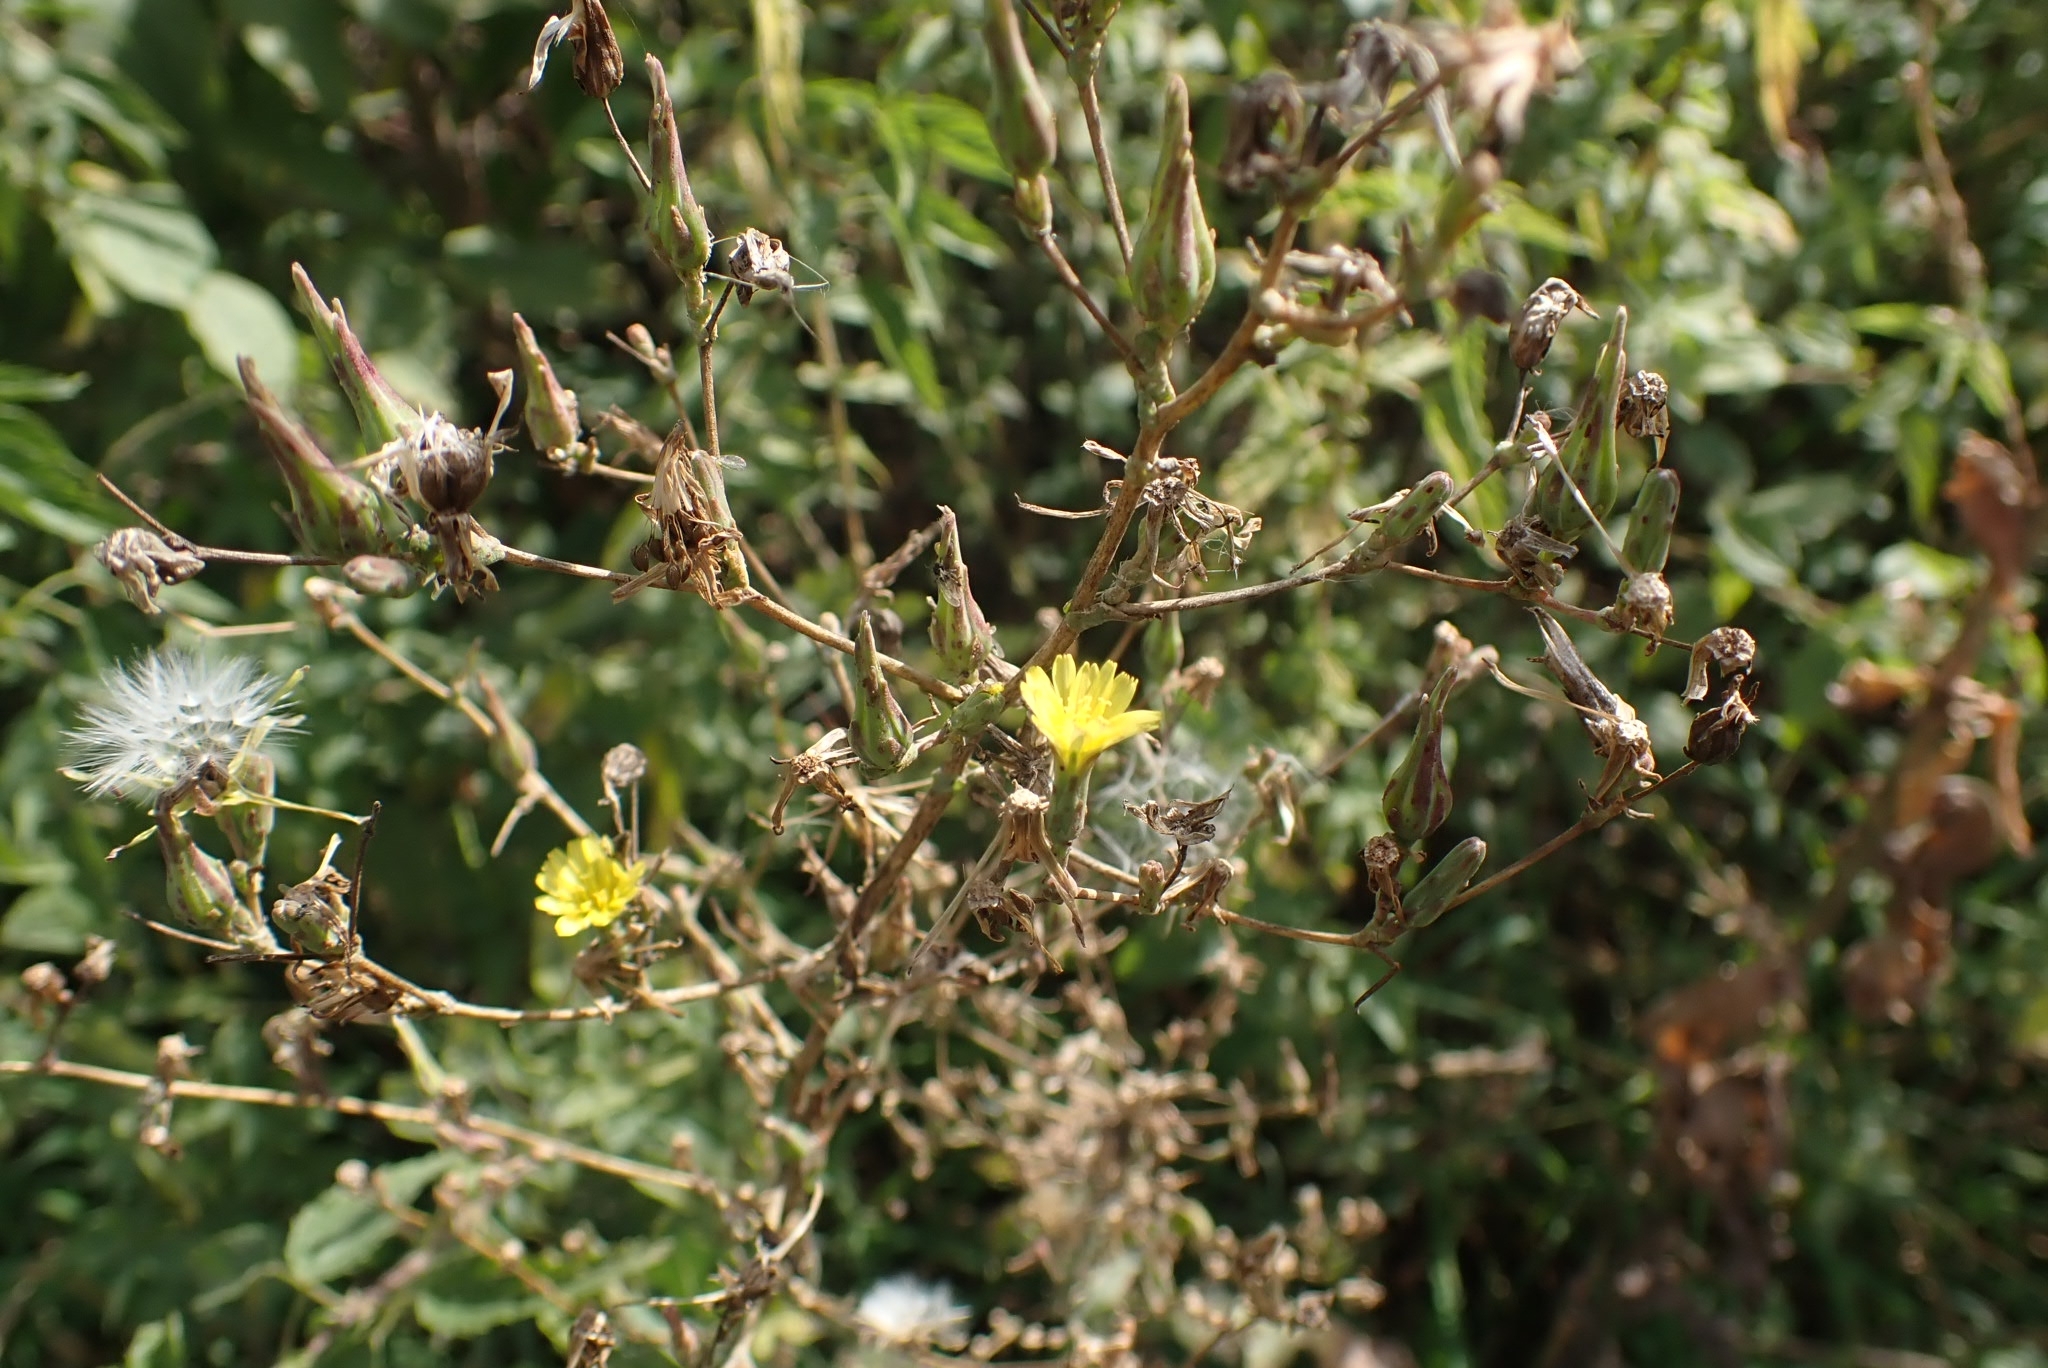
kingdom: Plantae
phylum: Tracheophyta
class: Magnoliopsida
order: Asterales
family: Asteraceae
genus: Lactuca
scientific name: Lactuca serriola
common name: Prickly lettuce
